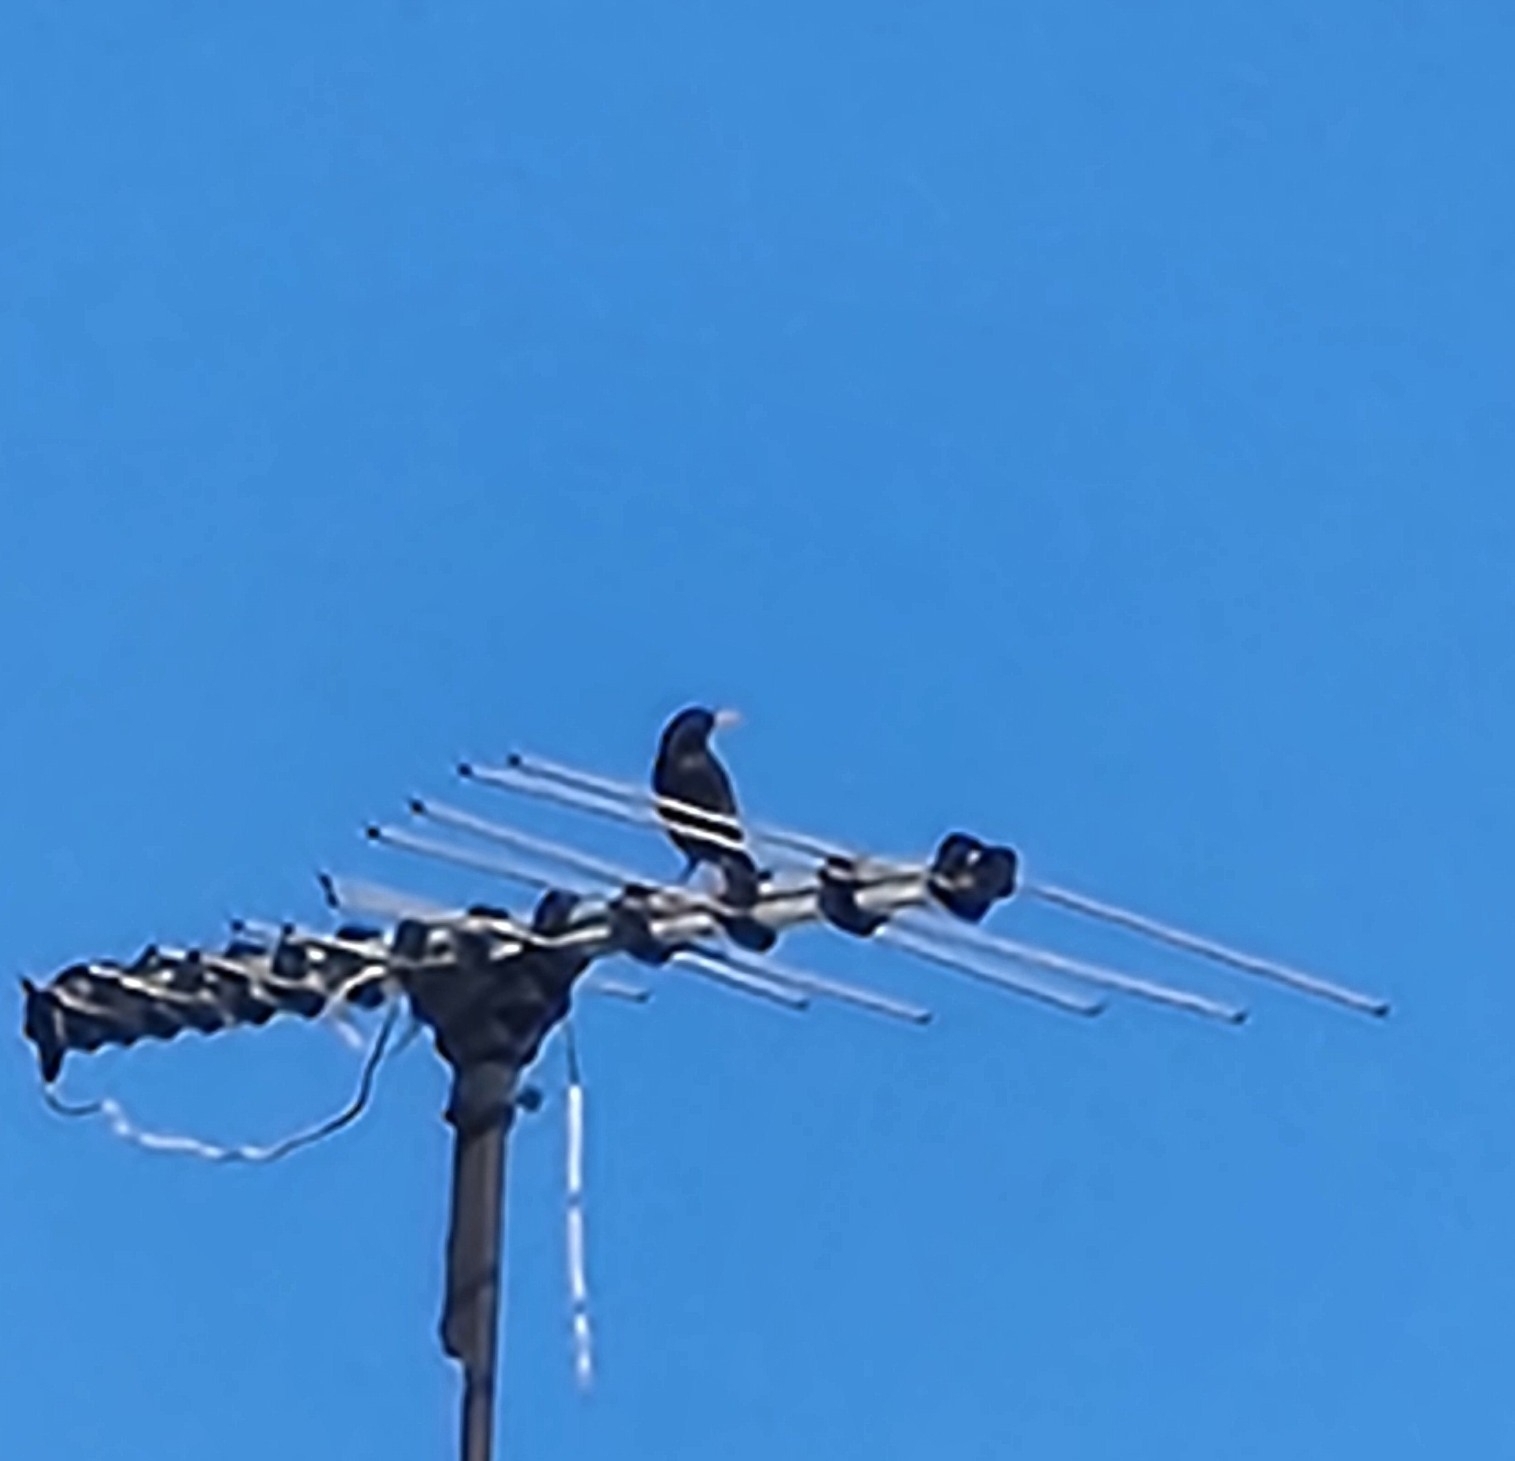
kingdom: Animalia
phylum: Chordata
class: Aves
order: Passeriformes
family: Sturnidae
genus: Sturnus
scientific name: Sturnus vulgaris
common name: Common starling
